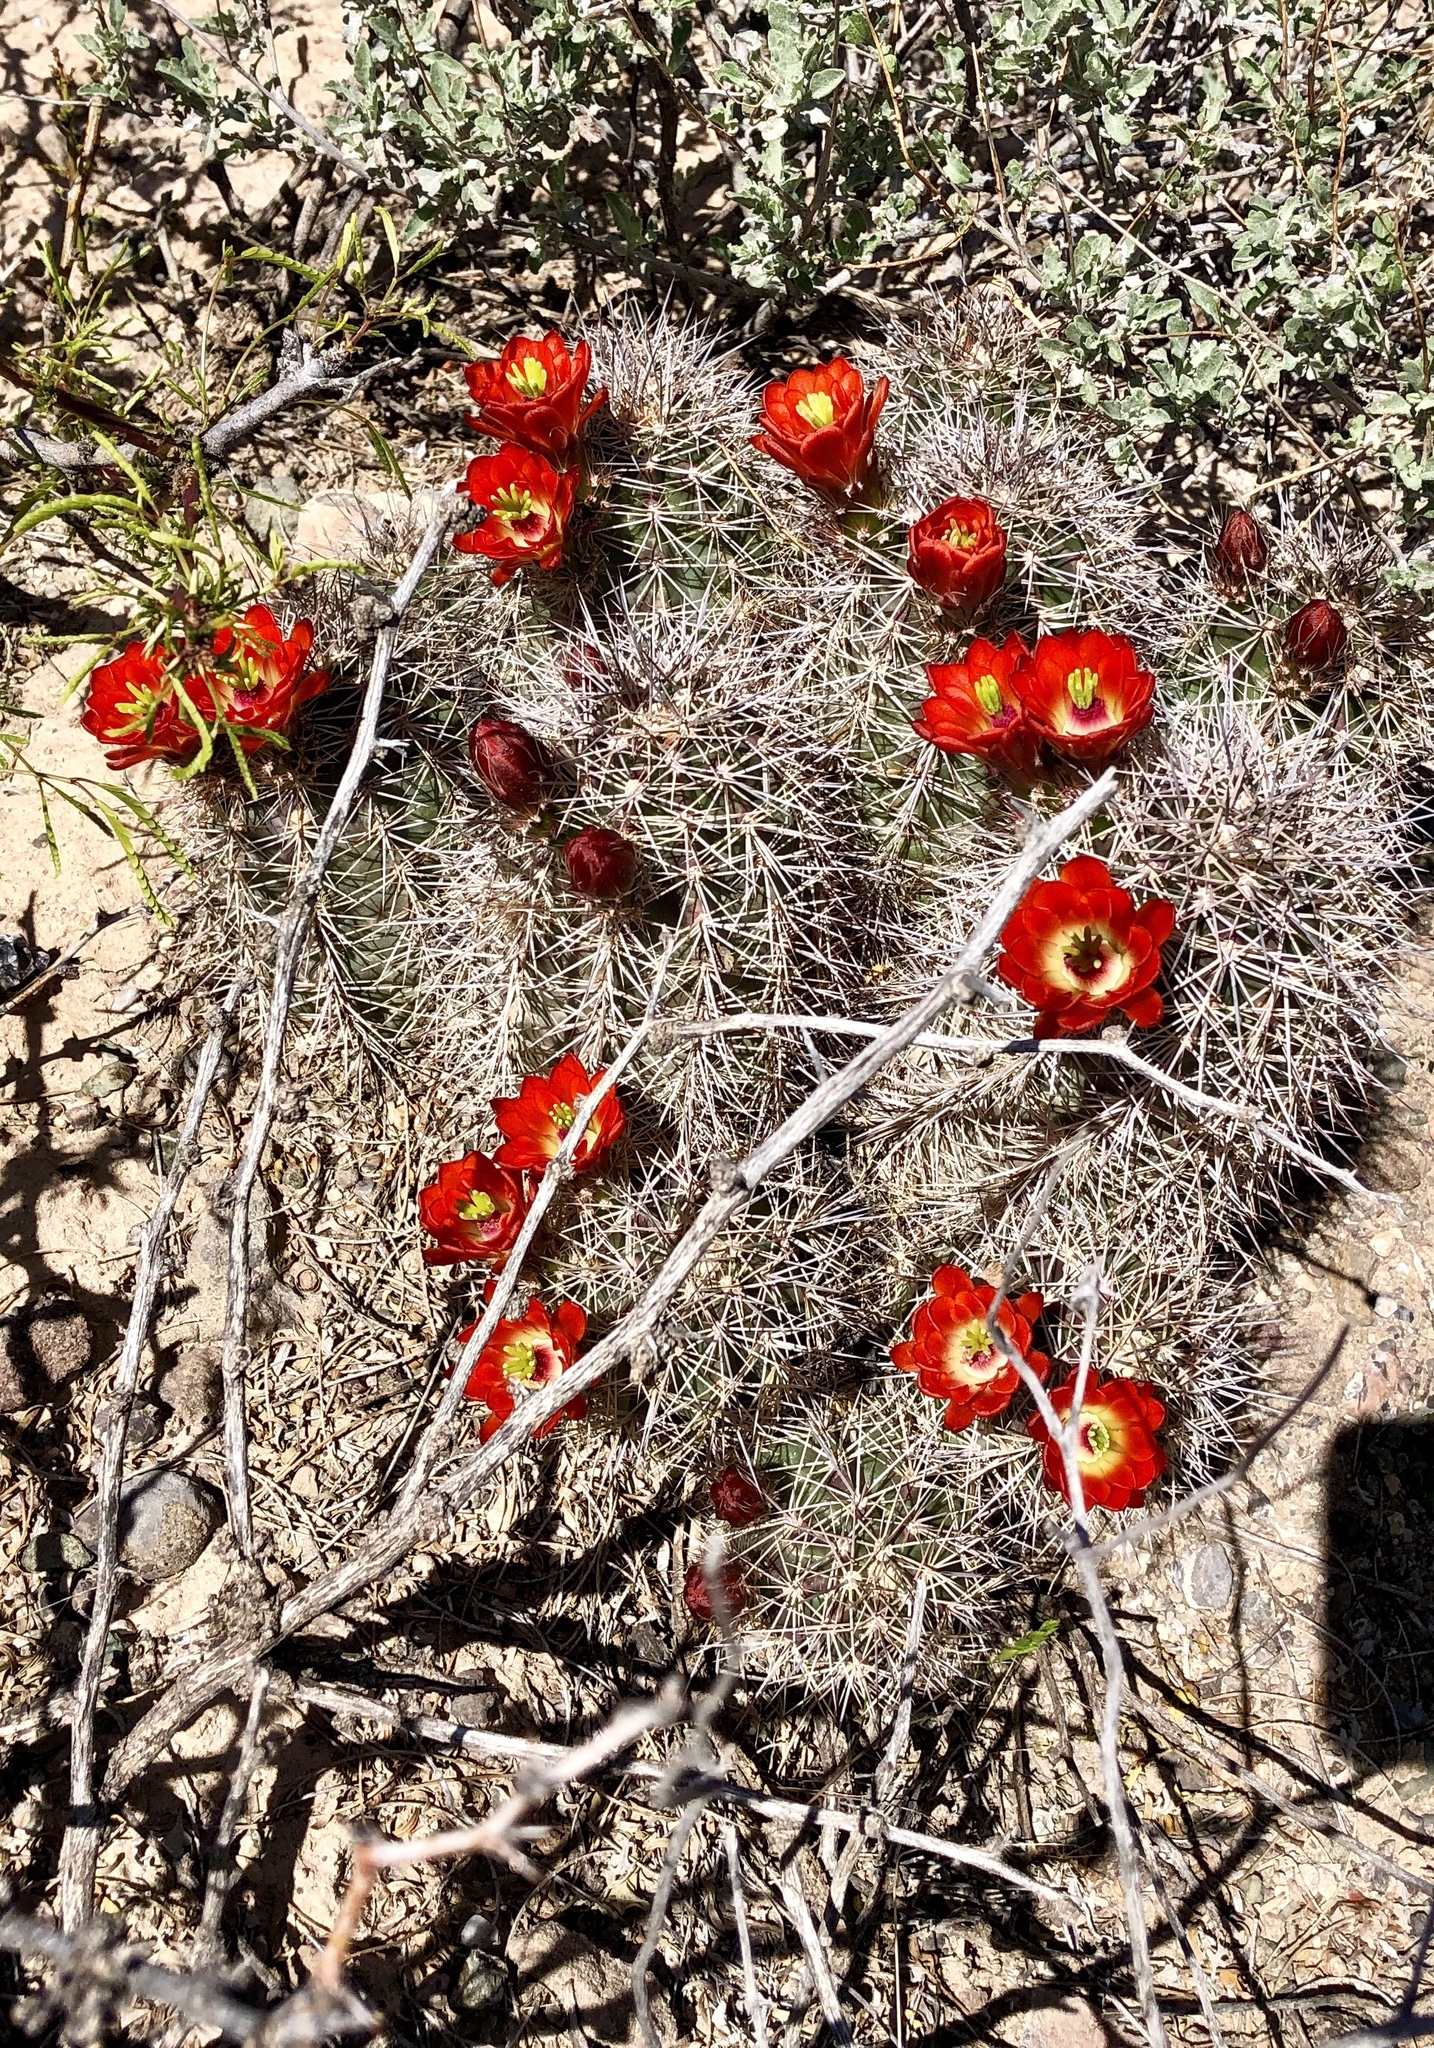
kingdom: Plantae
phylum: Tracheophyta
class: Magnoliopsida
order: Caryophyllales
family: Cactaceae
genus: Echinocereus
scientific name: Echinocereus coccineus
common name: Scarlet hedgehog cactus
